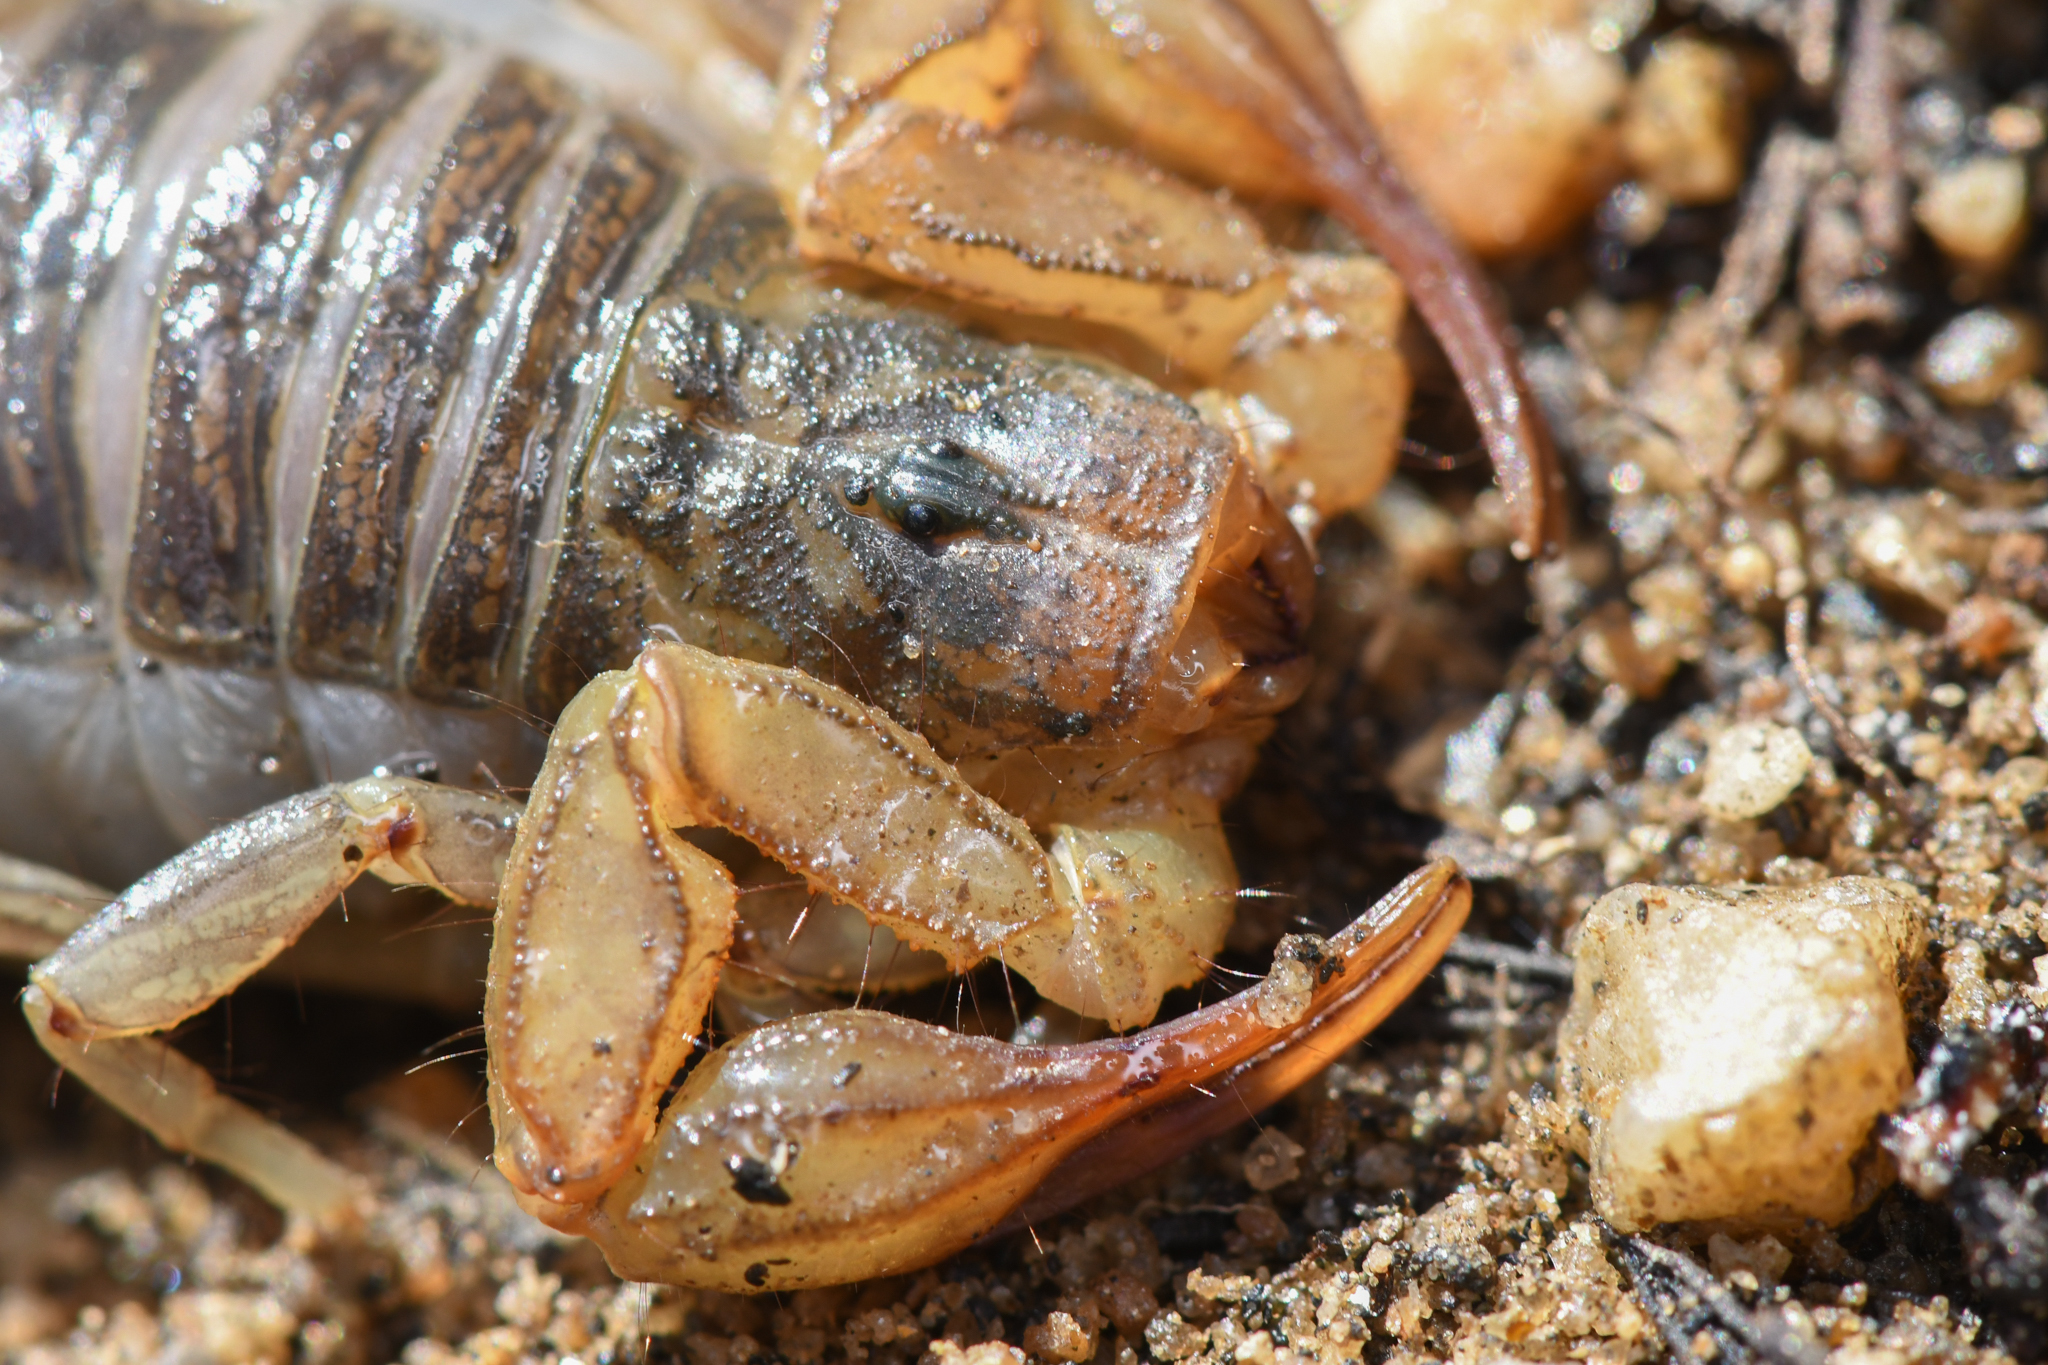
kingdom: Animalia
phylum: Arthropoda
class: Arachnida
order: Scorpiones
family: Vaejovidae
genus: Paruroctonus
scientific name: Paruroctonus silvestrii
